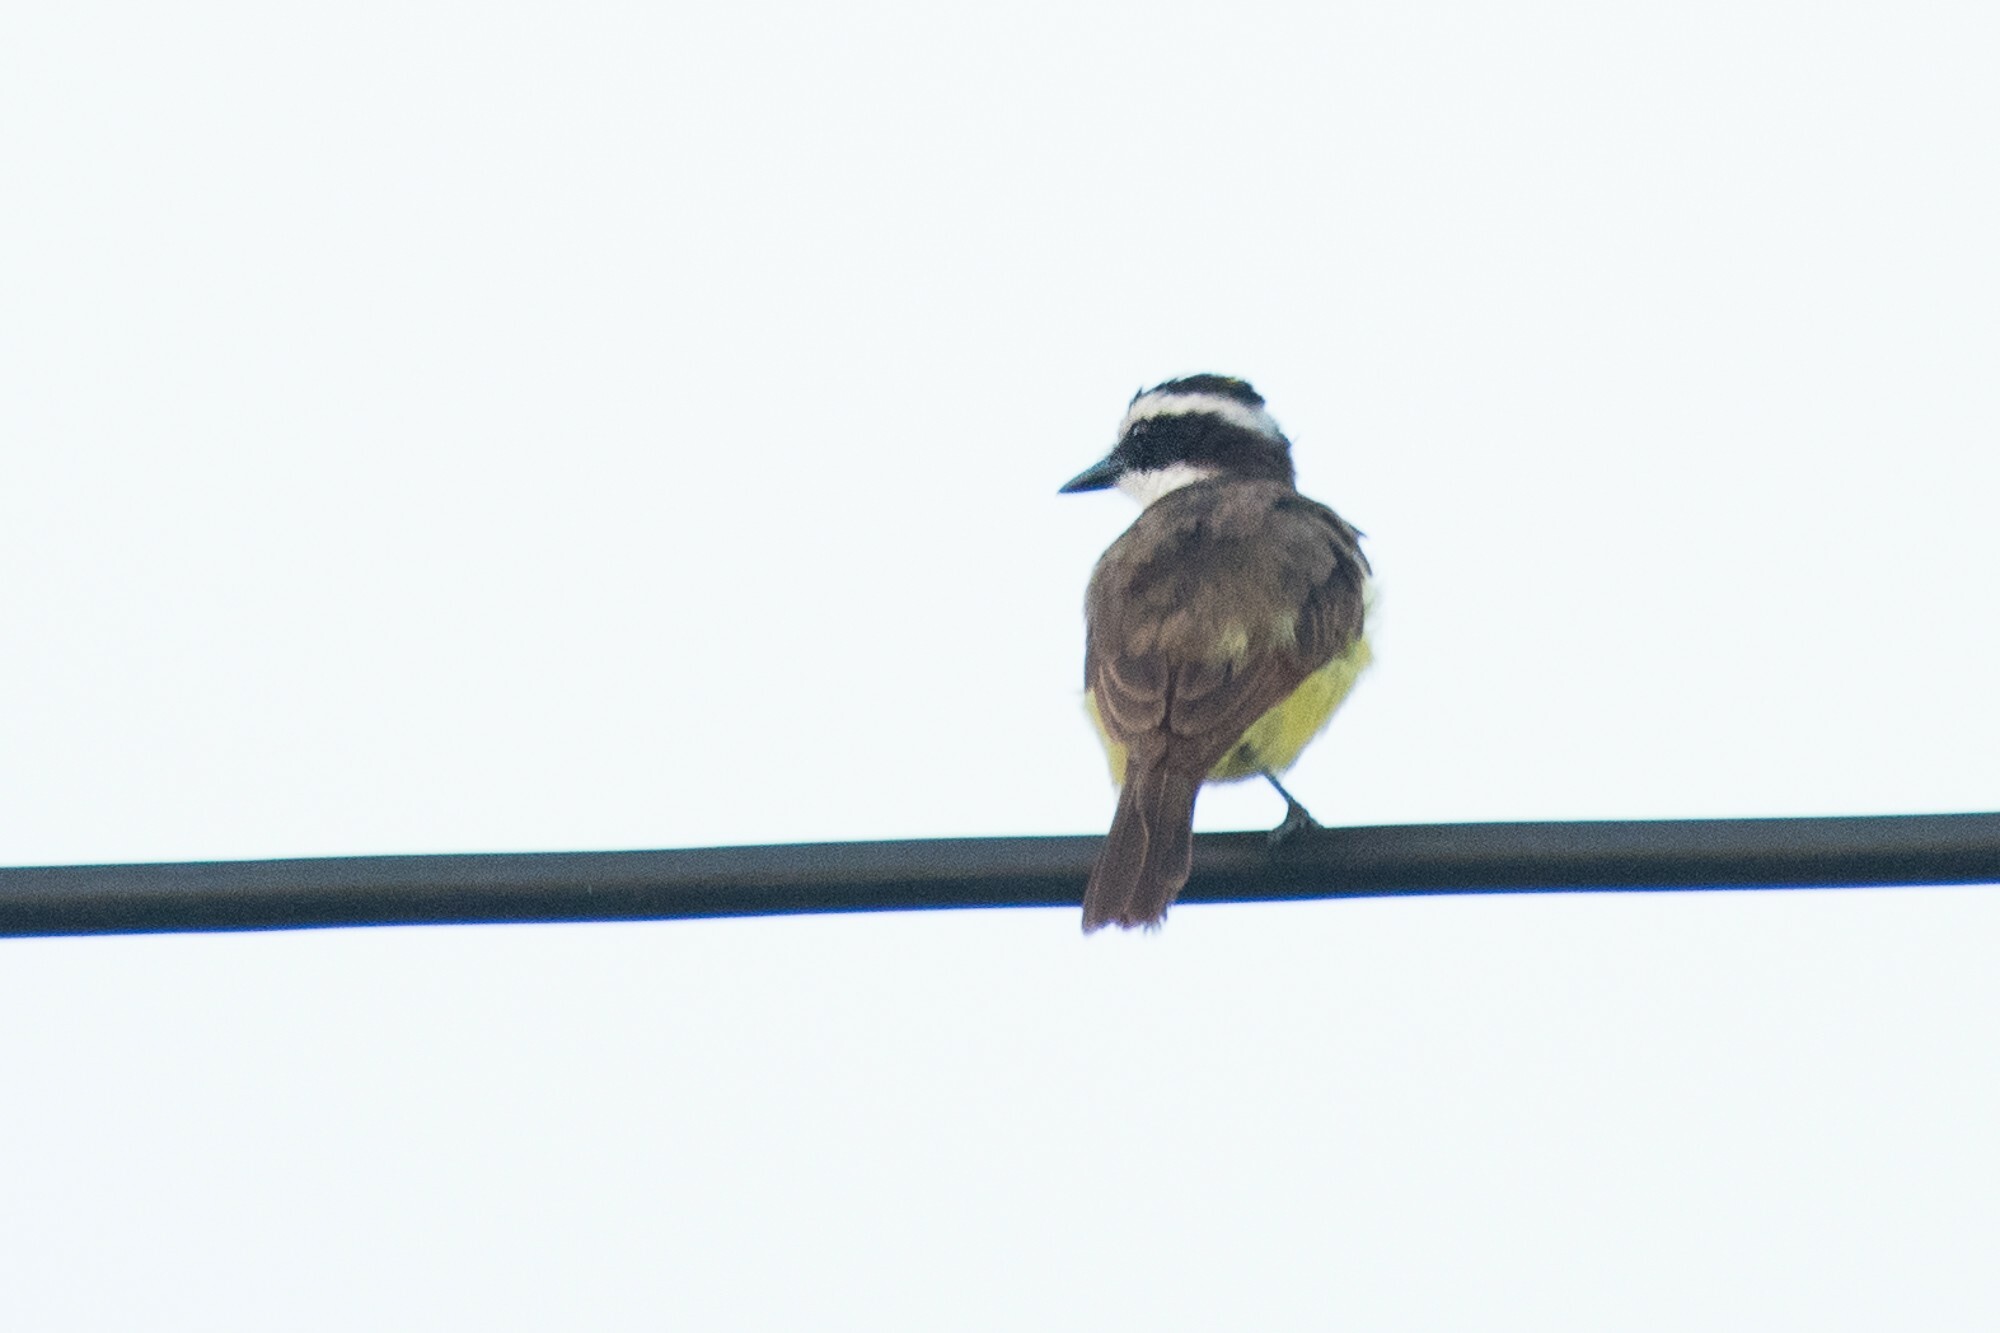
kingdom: Animalia
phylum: Chordata
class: Aves
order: Passeriformes
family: Tyrannidae
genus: Pitangus
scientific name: Pitangus sulphuratus
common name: Great kiskadee
